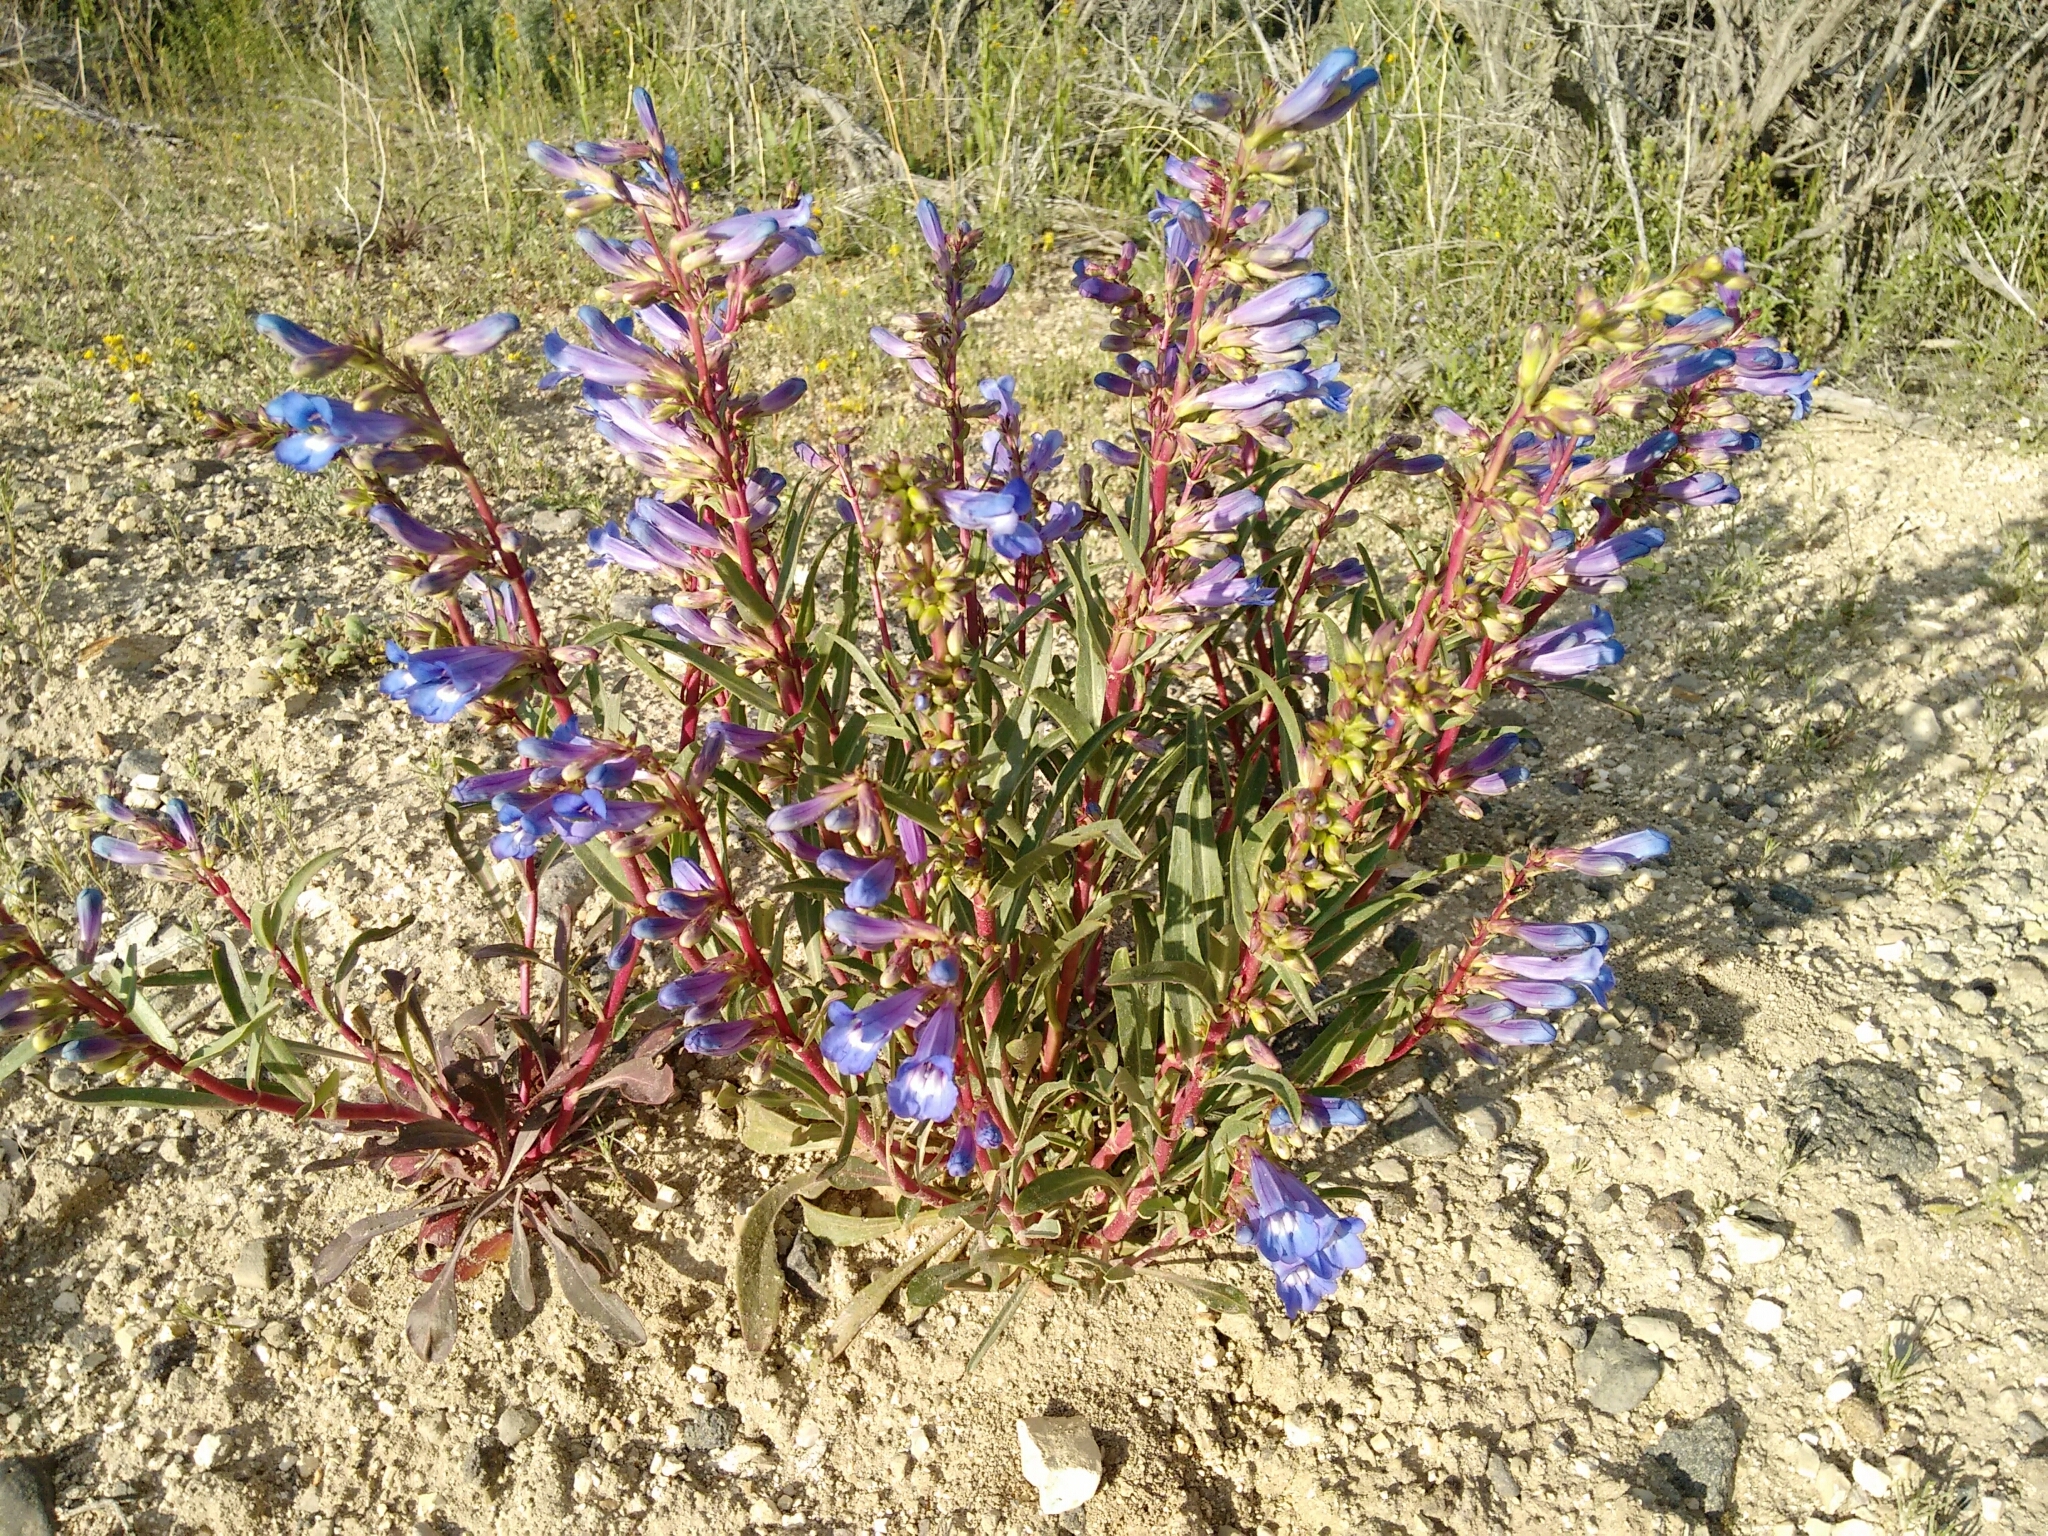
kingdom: Plantae
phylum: Tracheophyta
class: Magnoliopsida
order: Lamiales
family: Plantaginaceae
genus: Penstemon
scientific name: Penstemon speciosus
